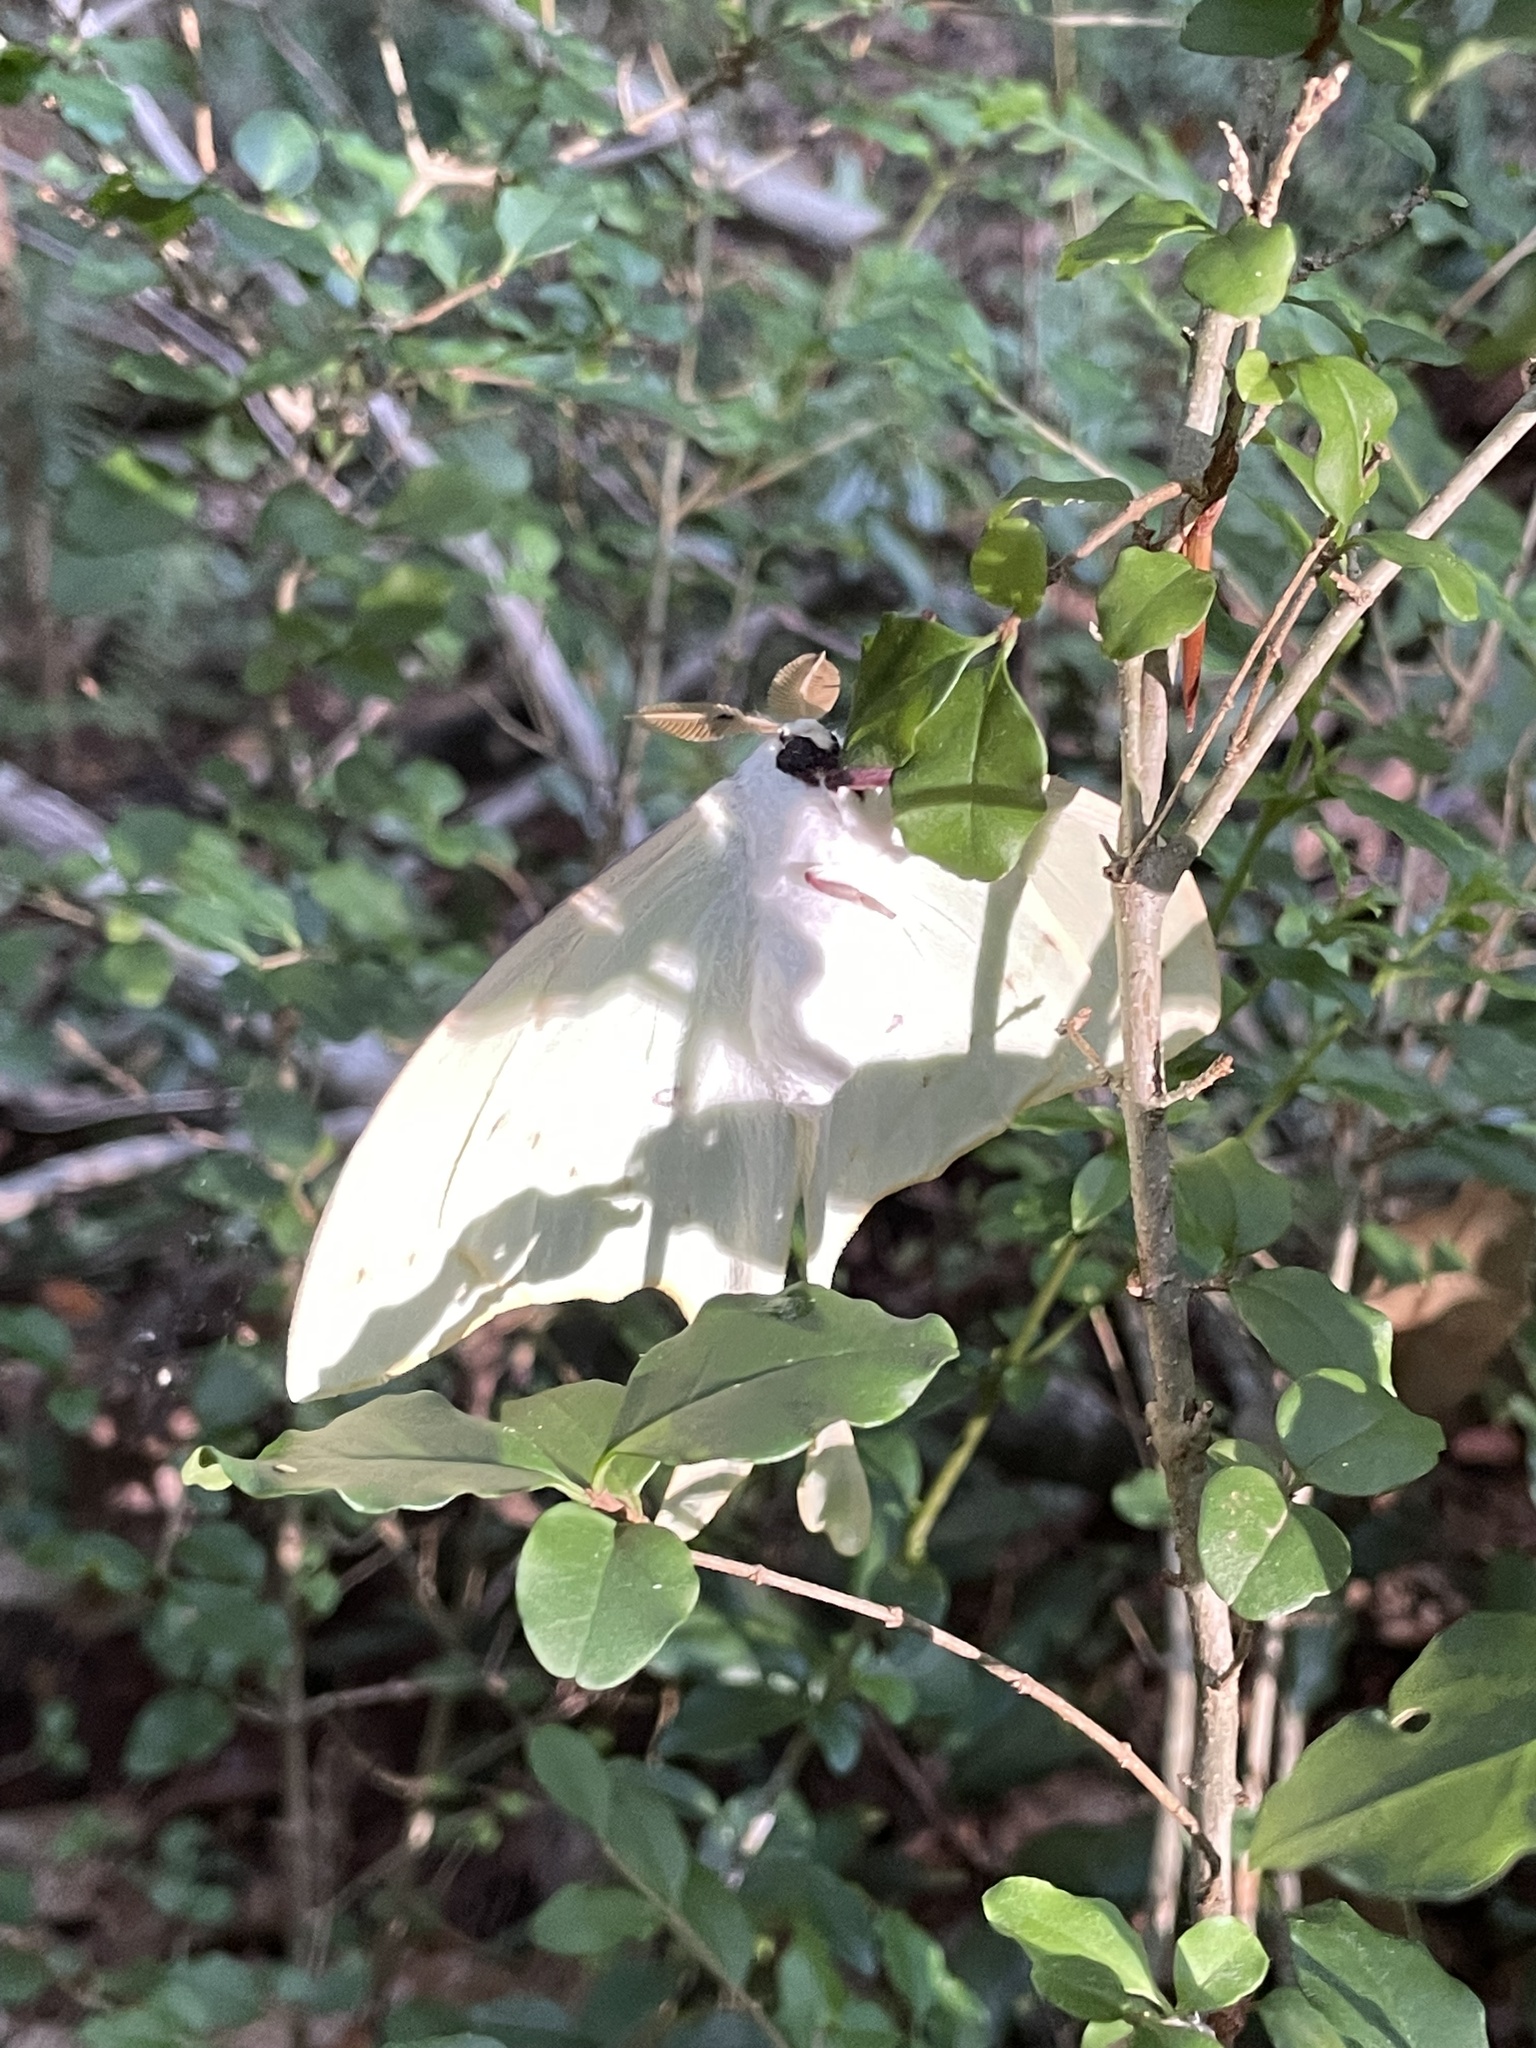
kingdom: Animalia
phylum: Arthropoda
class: Insecta
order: Lepidoptera
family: Saturniidae
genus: Actias
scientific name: Actias luna
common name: Luna moth
